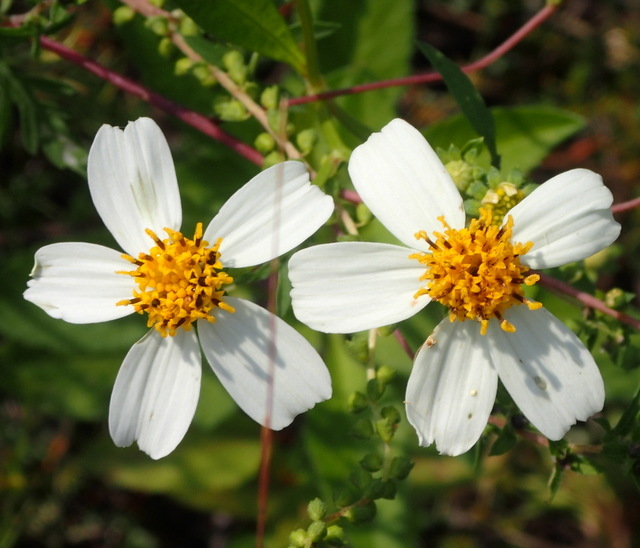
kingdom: Plantae
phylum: Tracheophyta
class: Magnoliopsida
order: Asterales
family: Asteraceae
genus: Bidens
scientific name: Bidens alba
